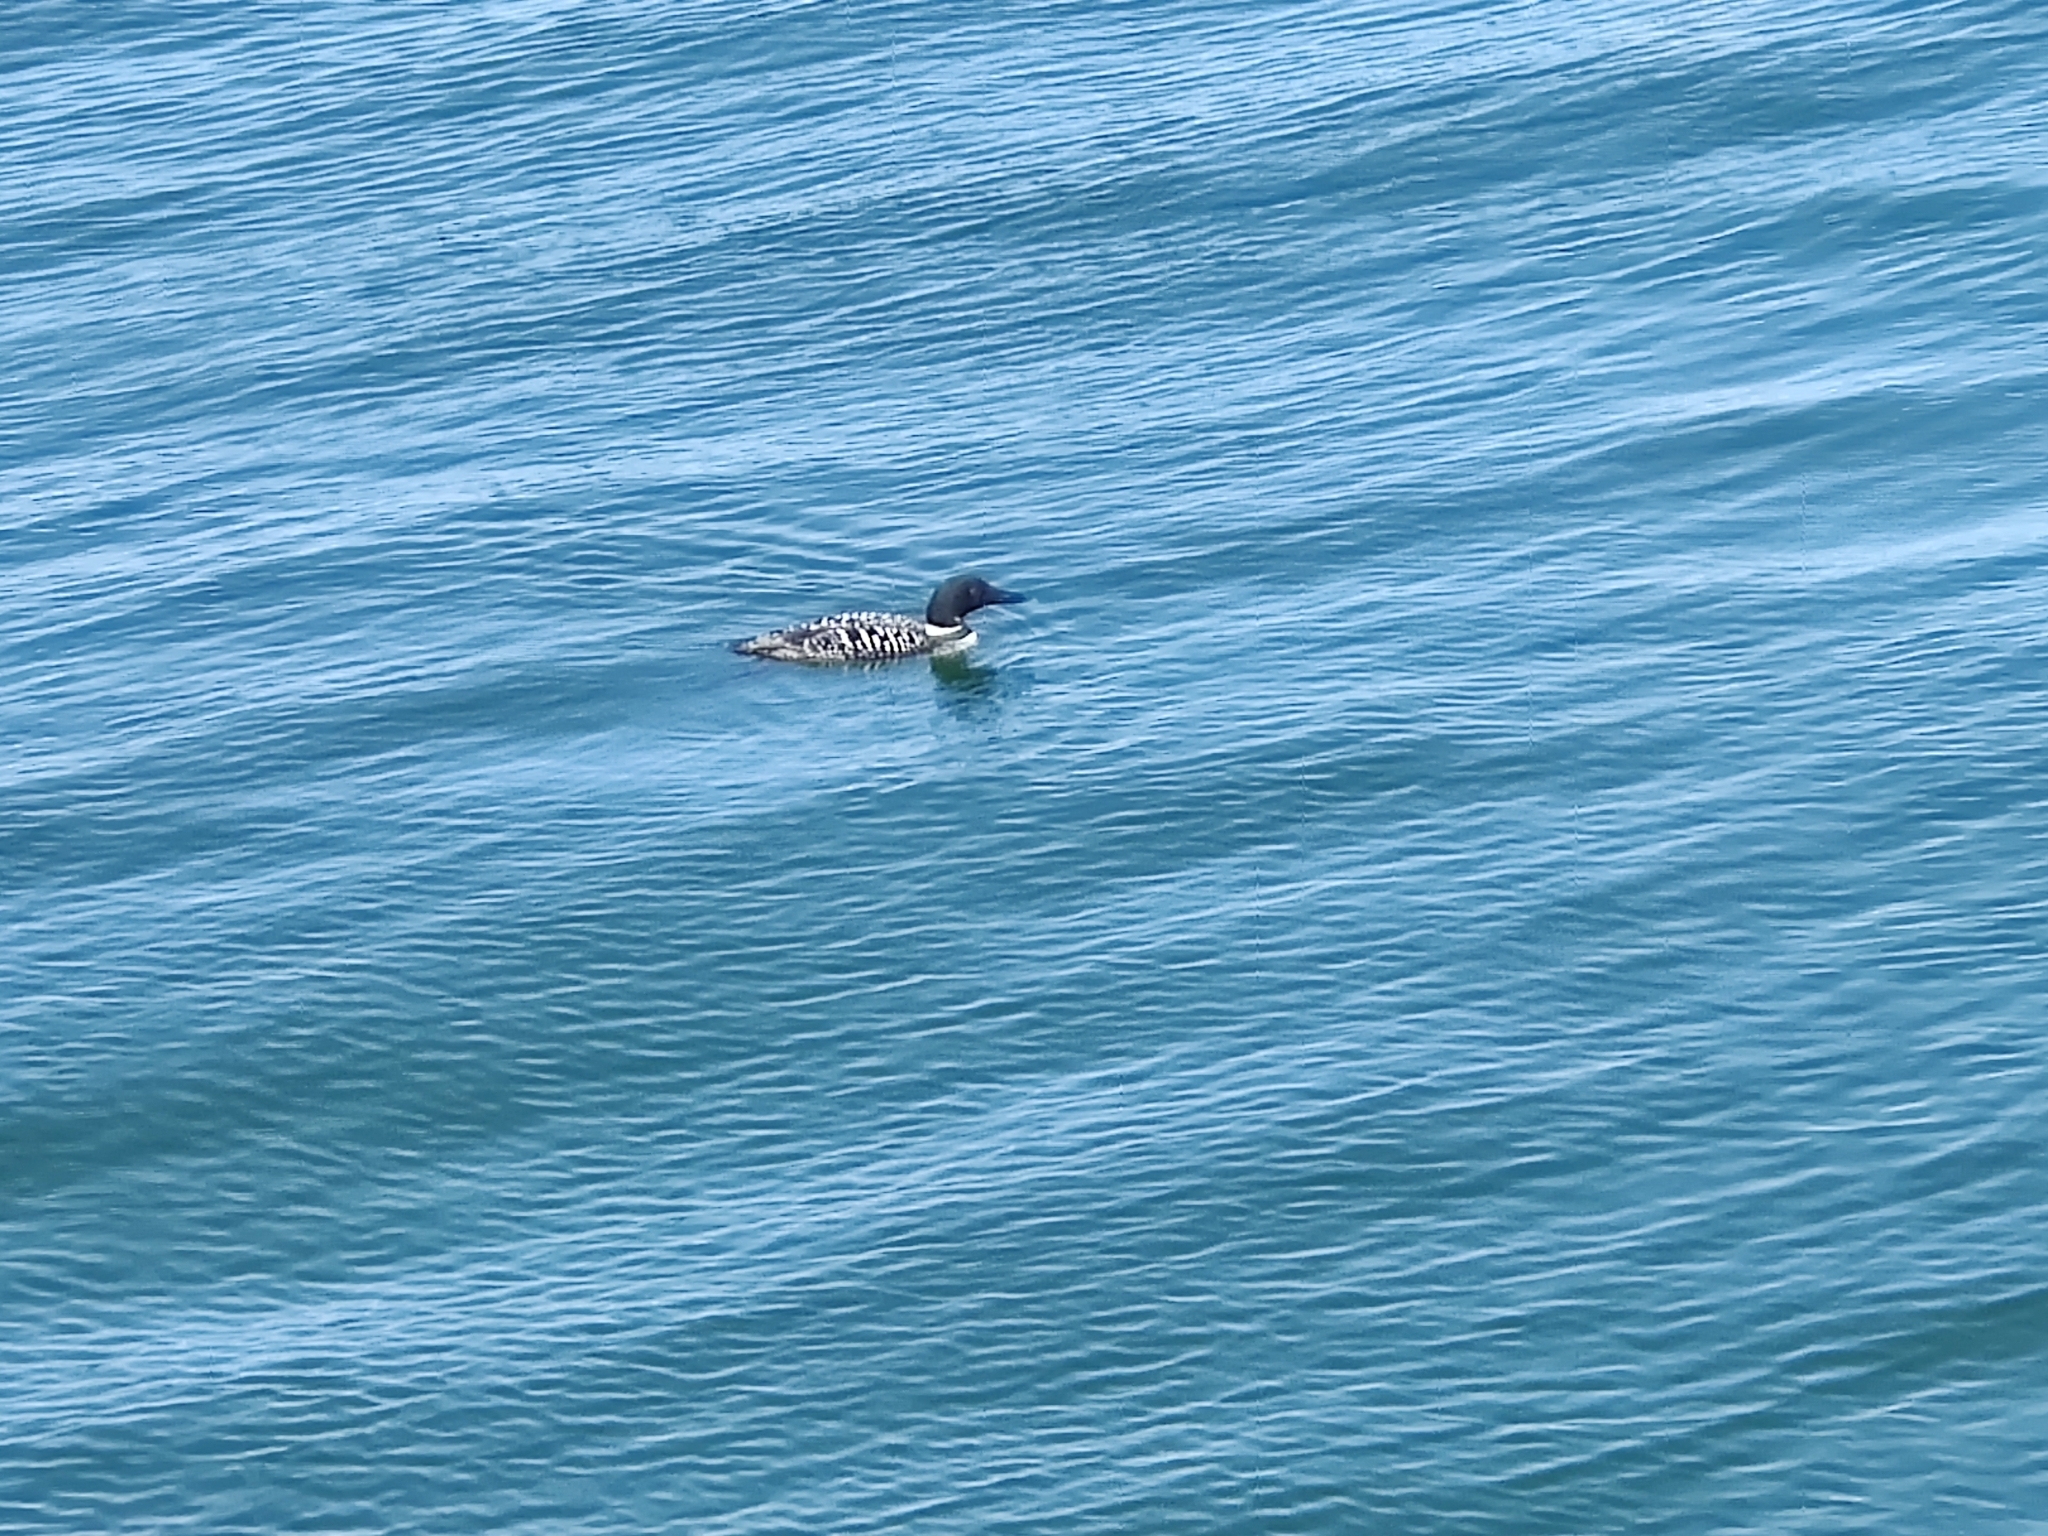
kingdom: Animalia
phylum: Chordata
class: Aves
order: Gaviiformes
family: Gaviidae
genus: Gavia
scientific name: Gavia immer
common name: Common loon
